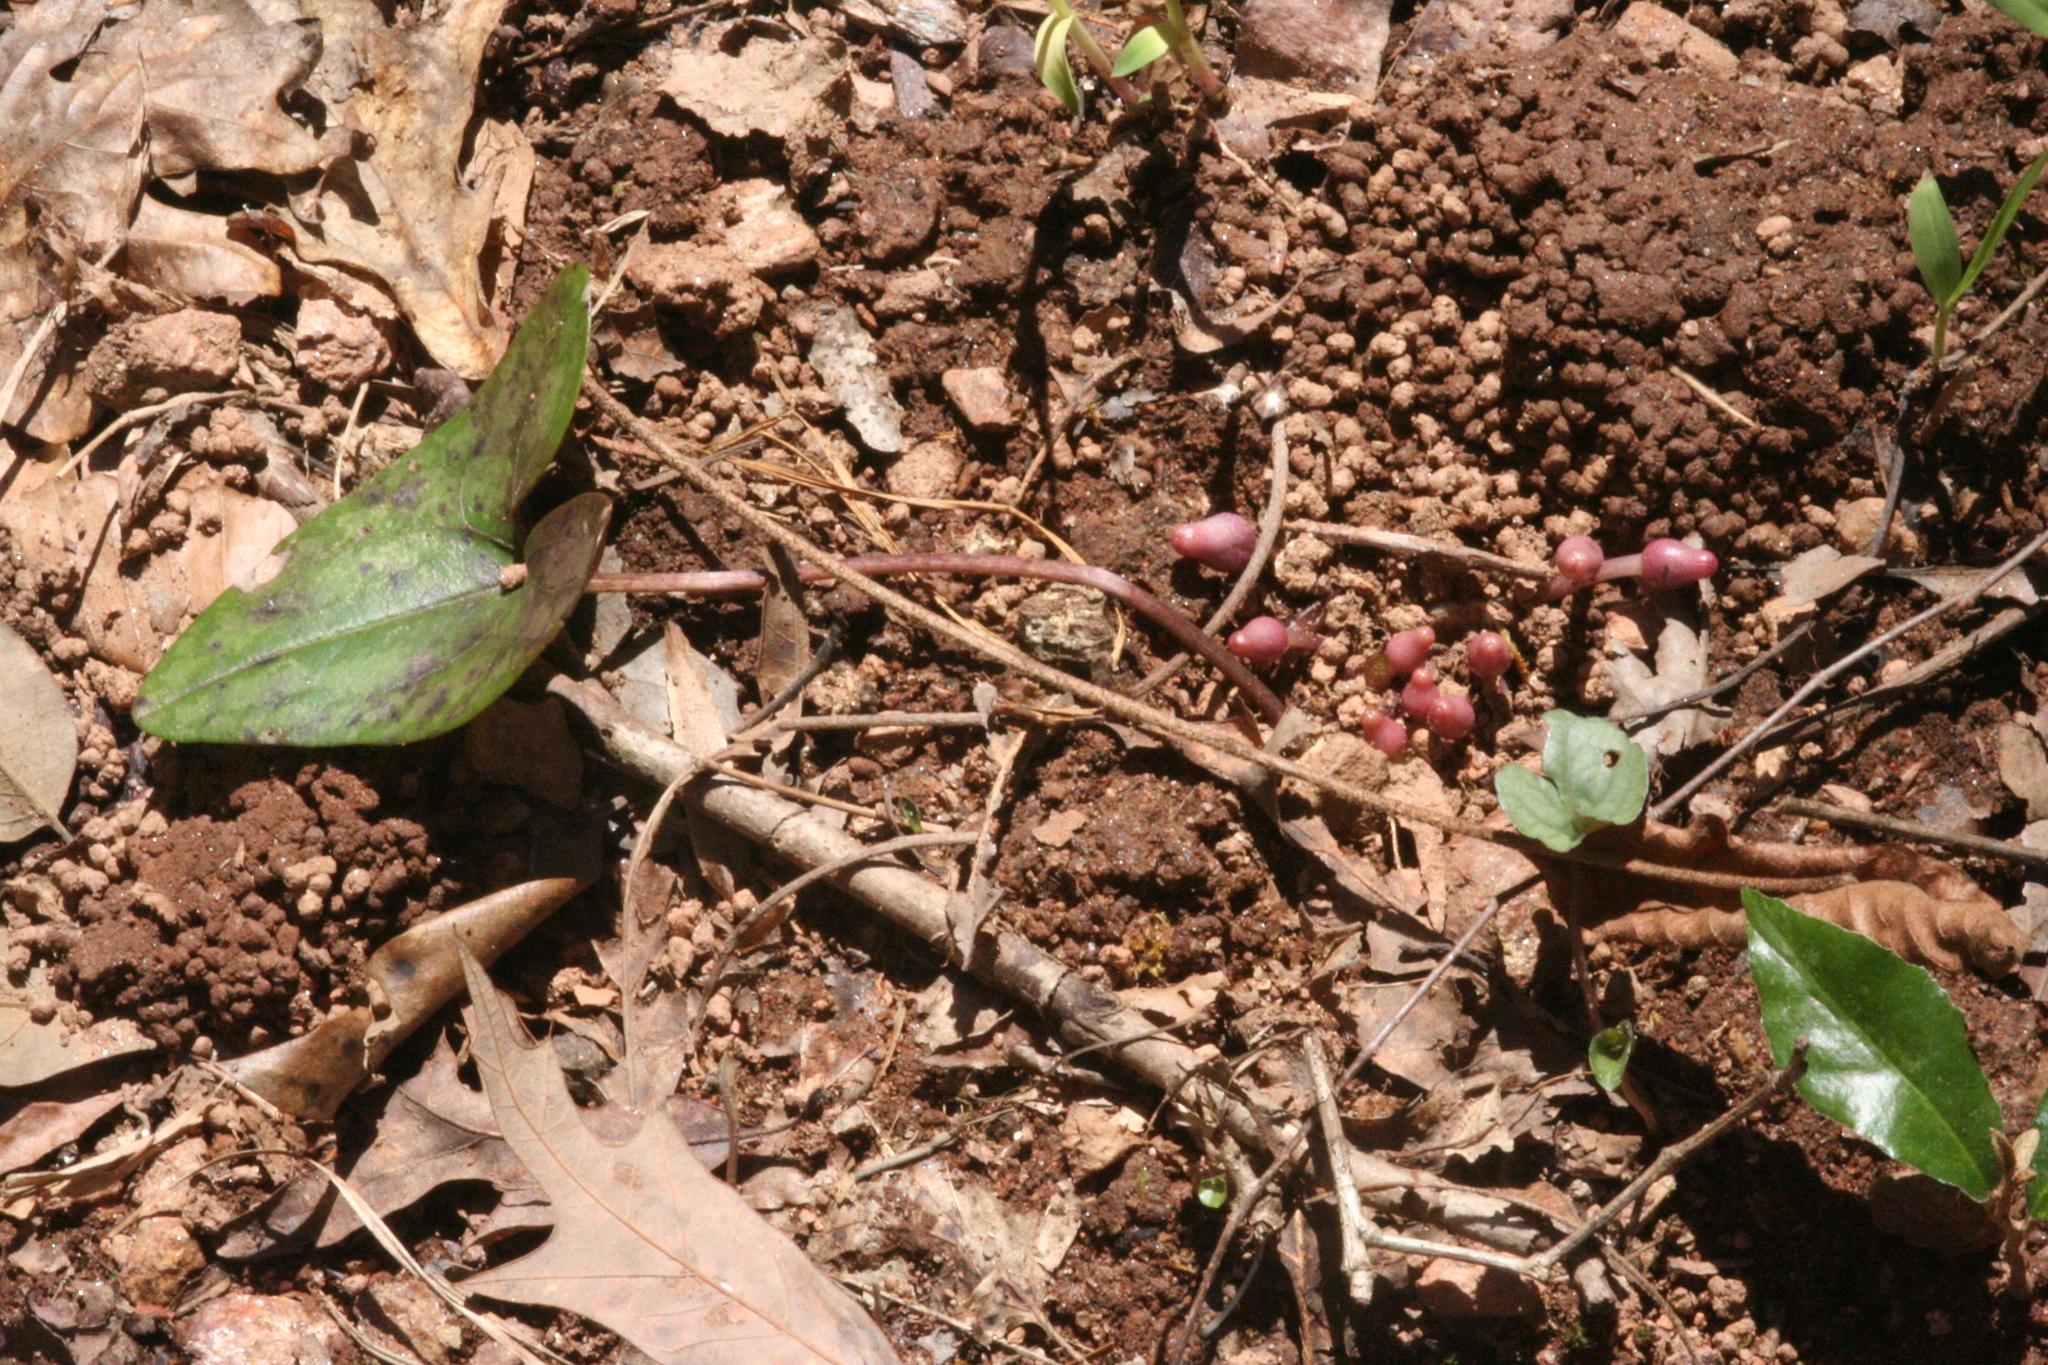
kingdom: Plantae
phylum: Tracheophyta
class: Magnoliopsida
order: Piperales
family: Aristolochiaceae
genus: Hexastylis
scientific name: Hexastylis arifolia
